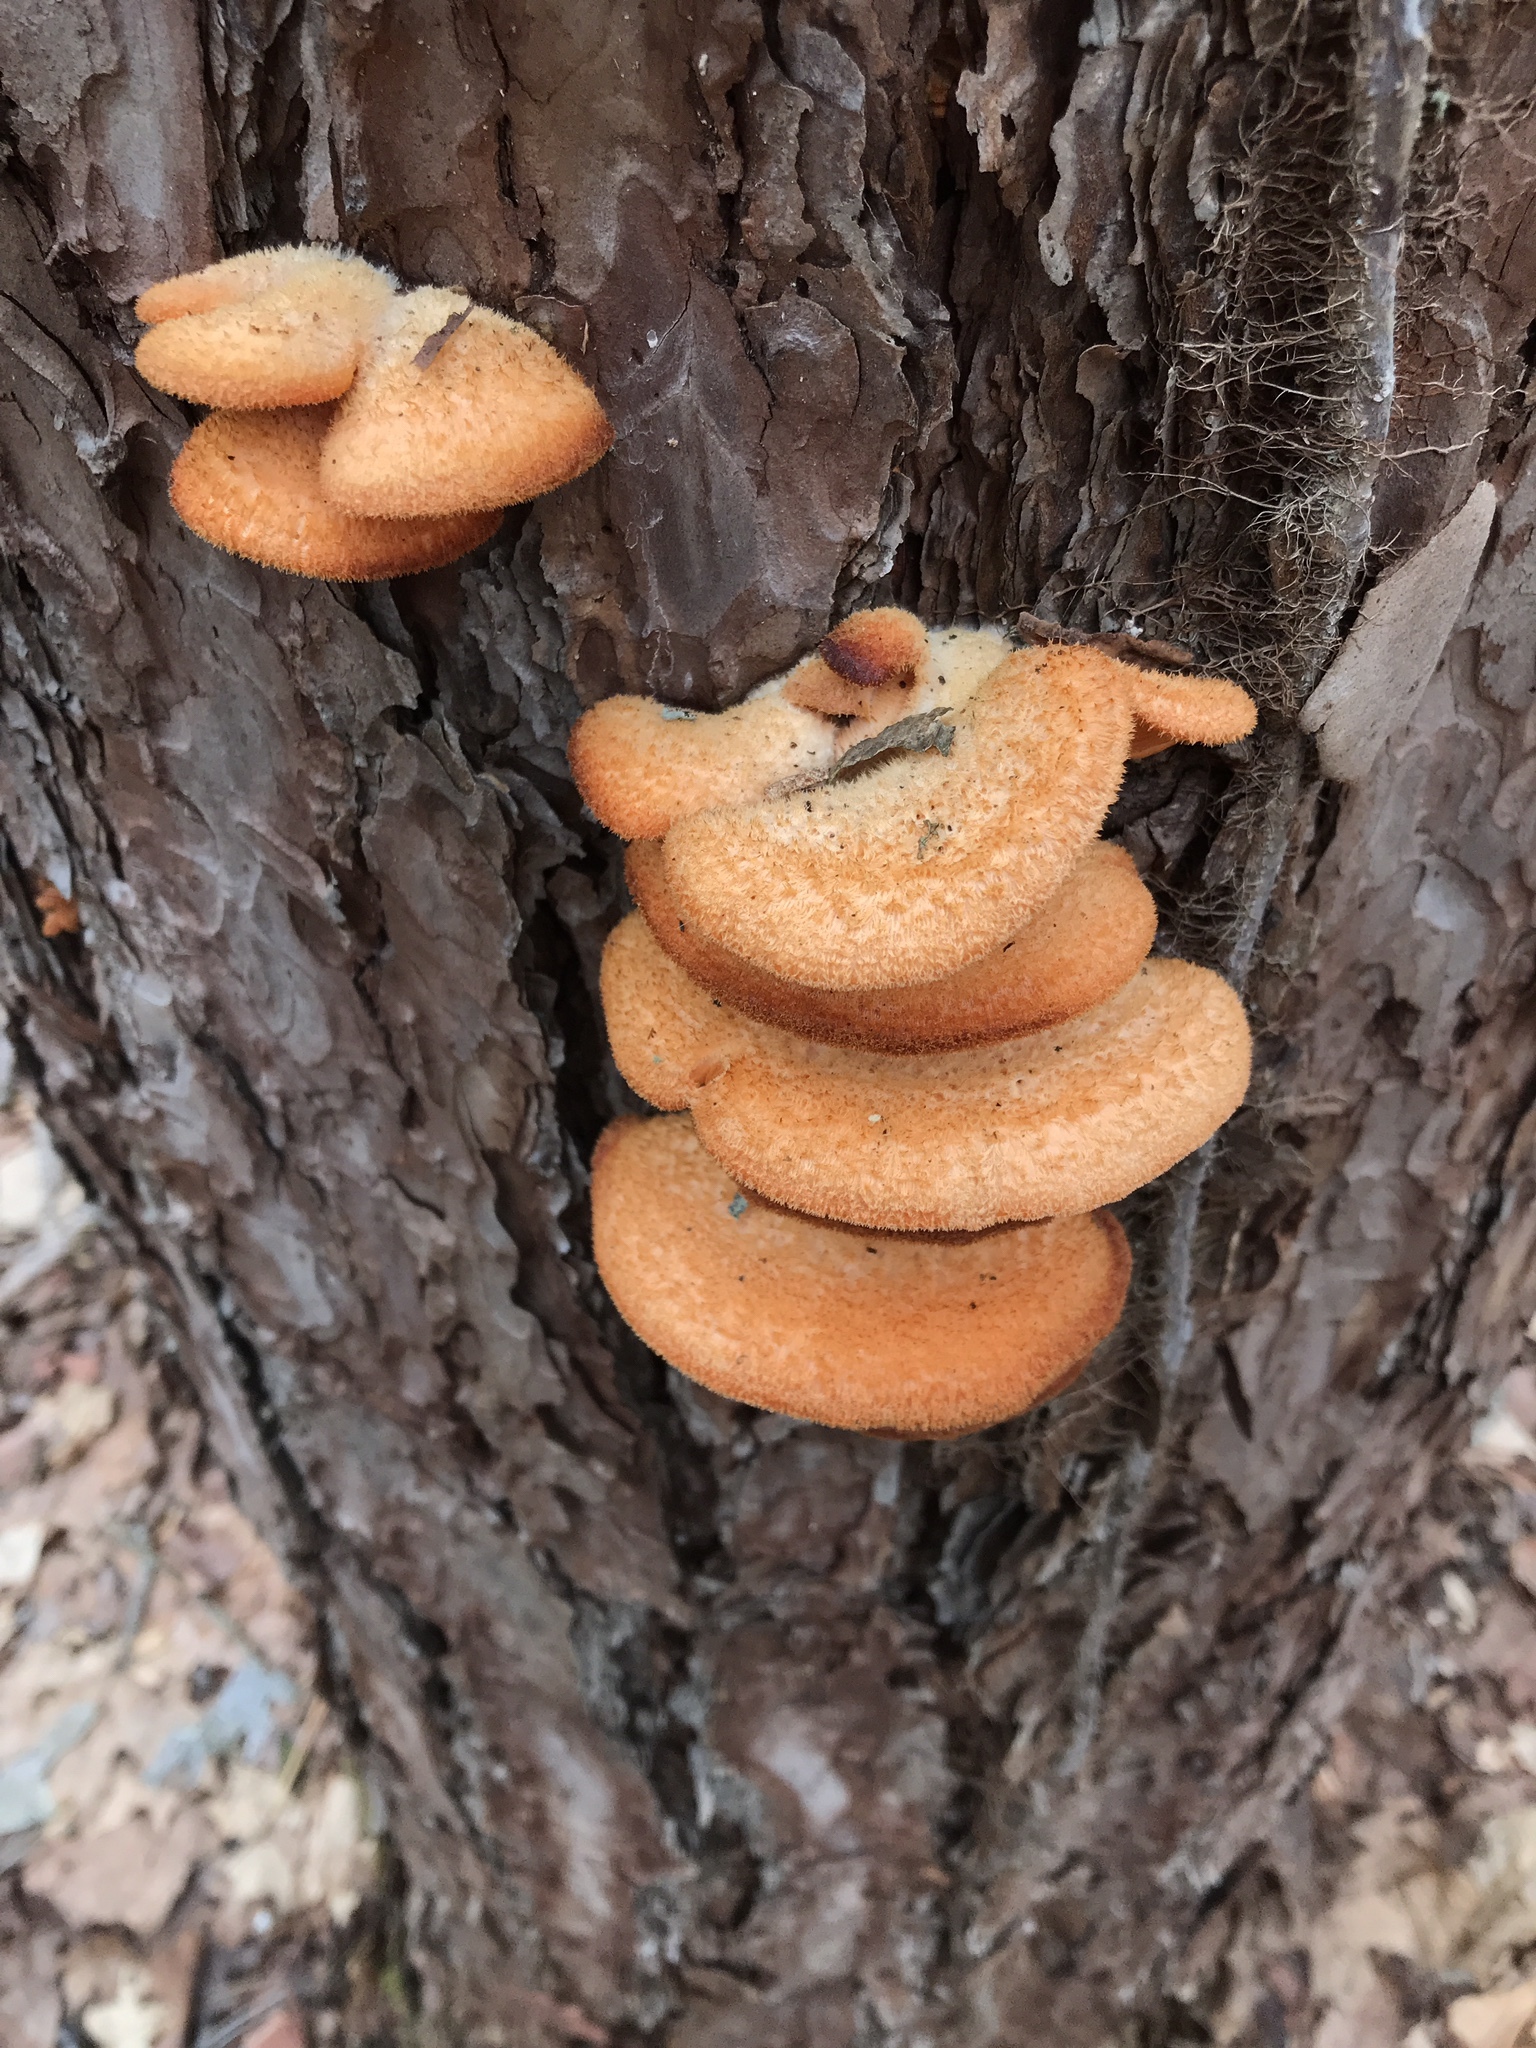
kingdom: Fungi
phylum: Basidiomycota
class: Agaricomycetes
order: Agaricales
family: Phyllotopsidaceae
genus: Phyllotopsis
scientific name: Phyllotopsis nidulans
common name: Orange mock oyster
